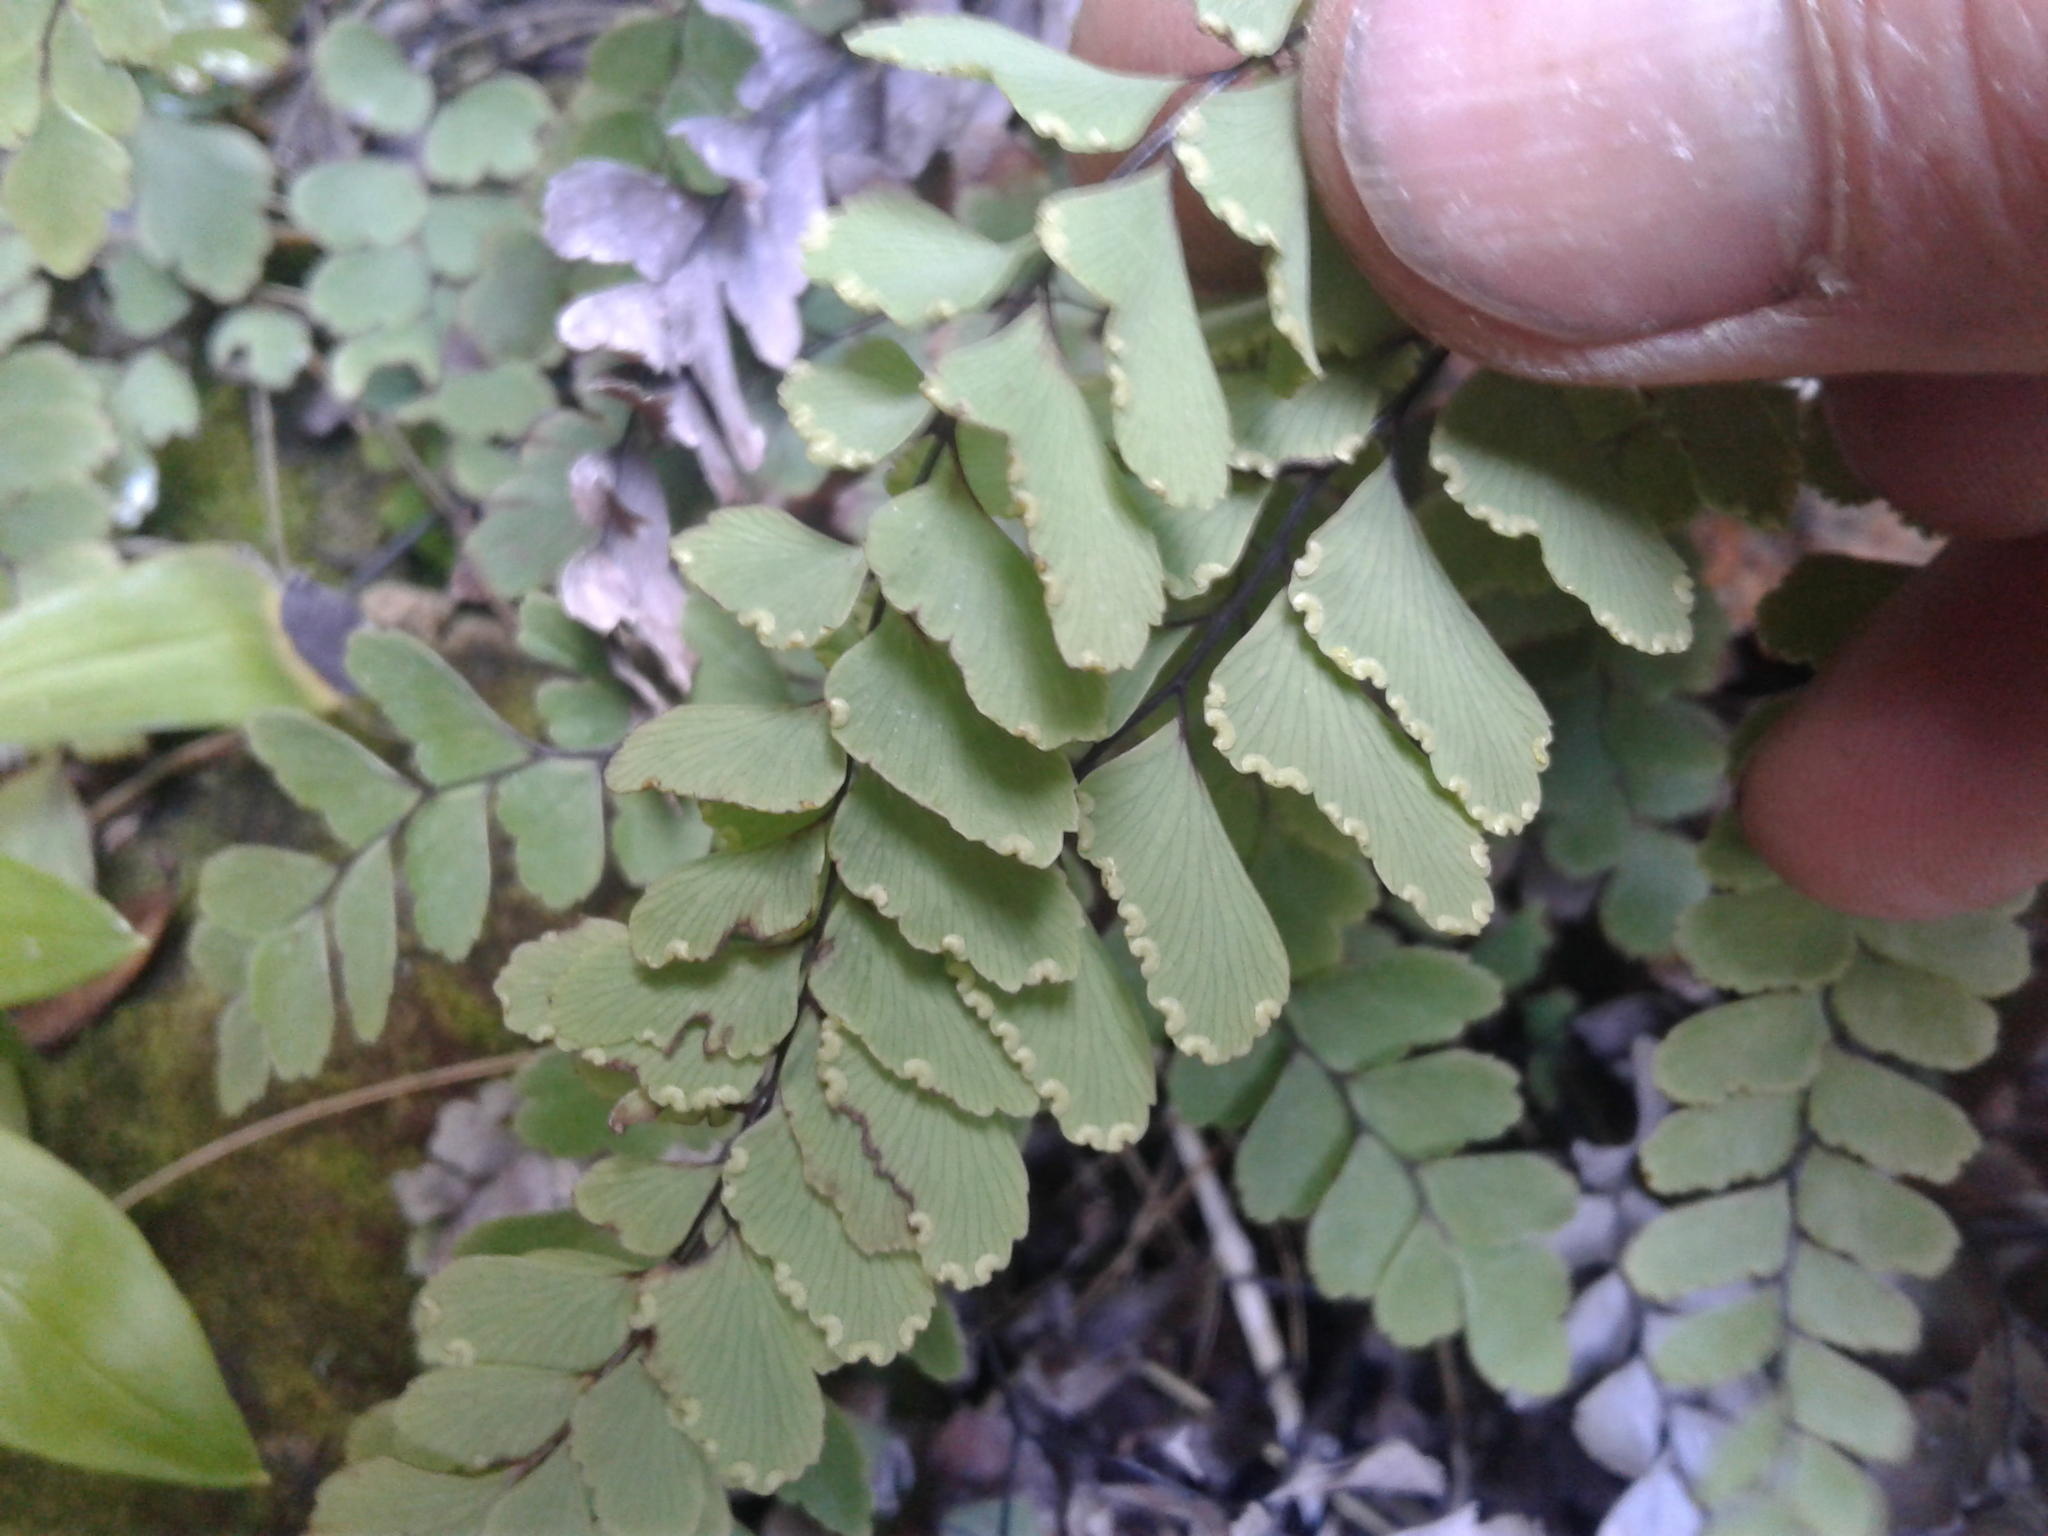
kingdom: Plantae
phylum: Tracheophyta
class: Polypodiopsida
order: Polypodiales
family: Pteridaceae
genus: Adiantum
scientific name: Adiantum cunninghamii
